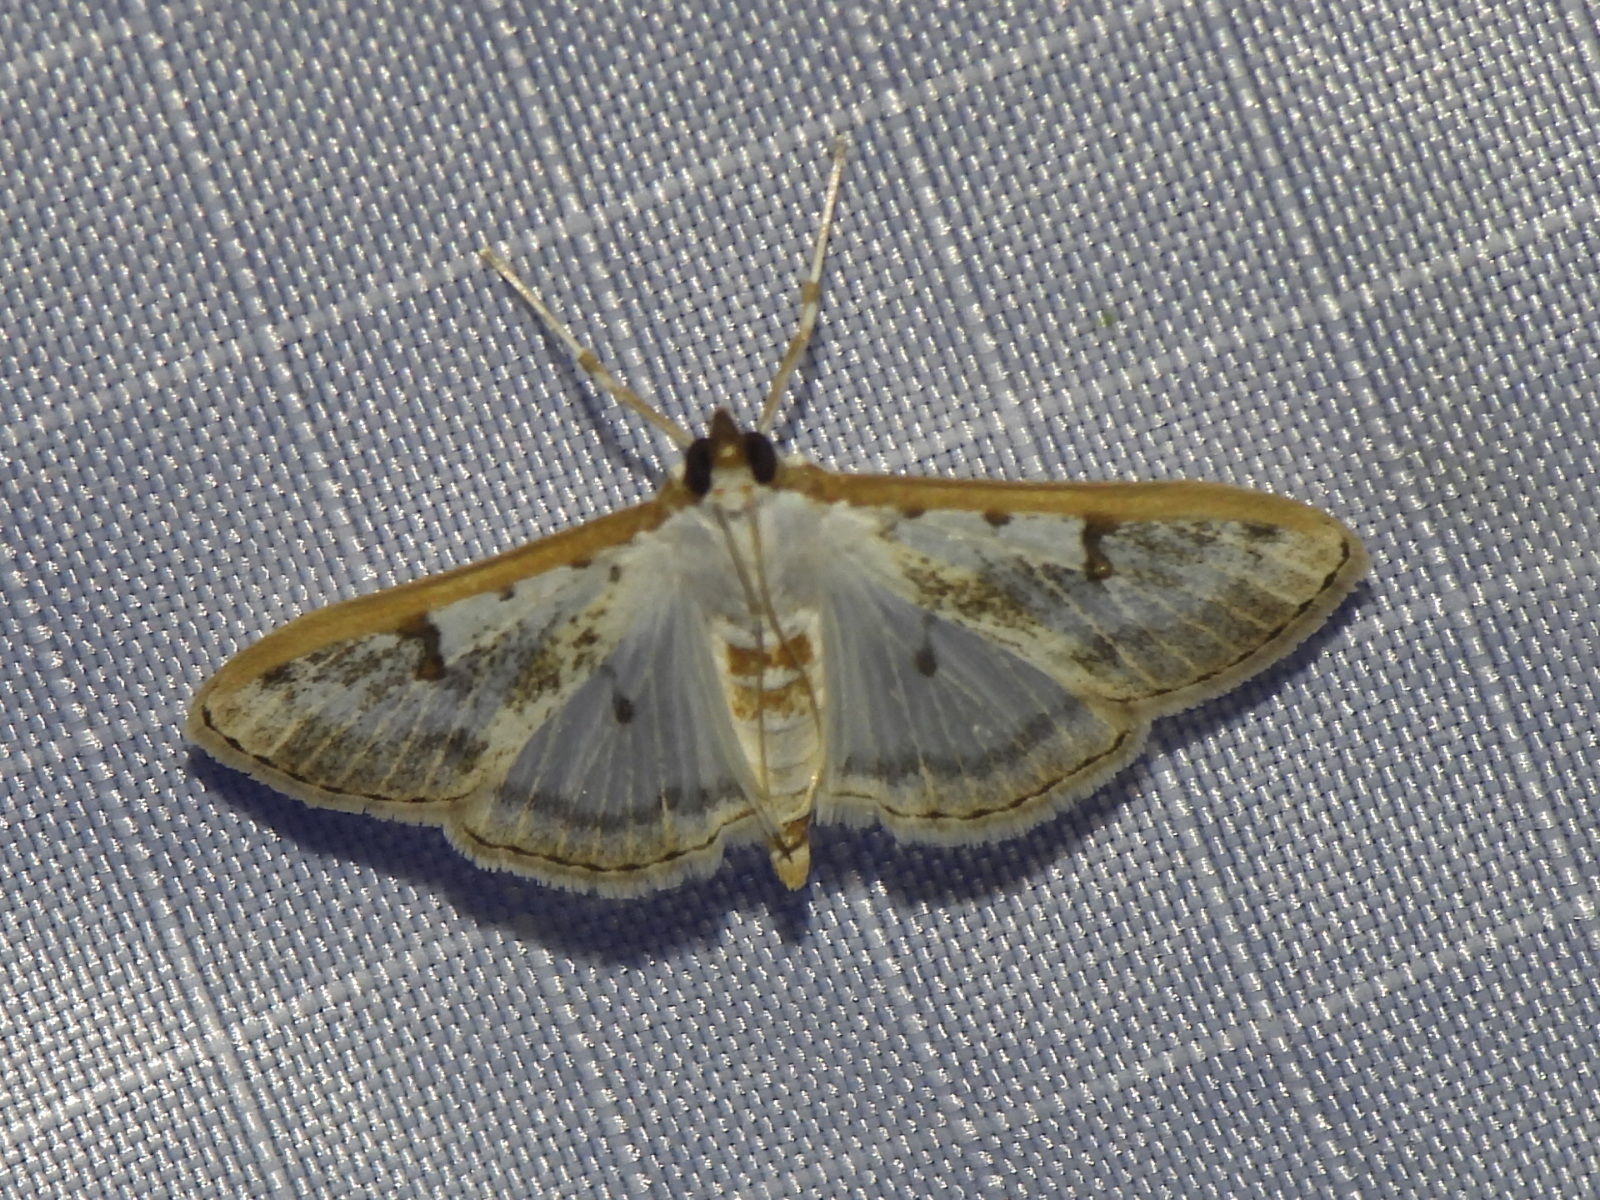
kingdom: Animalia
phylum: Arthropoda
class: Insecta
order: Lepidoptera
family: Crambidae
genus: Palpita
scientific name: Palpita gracilalis
